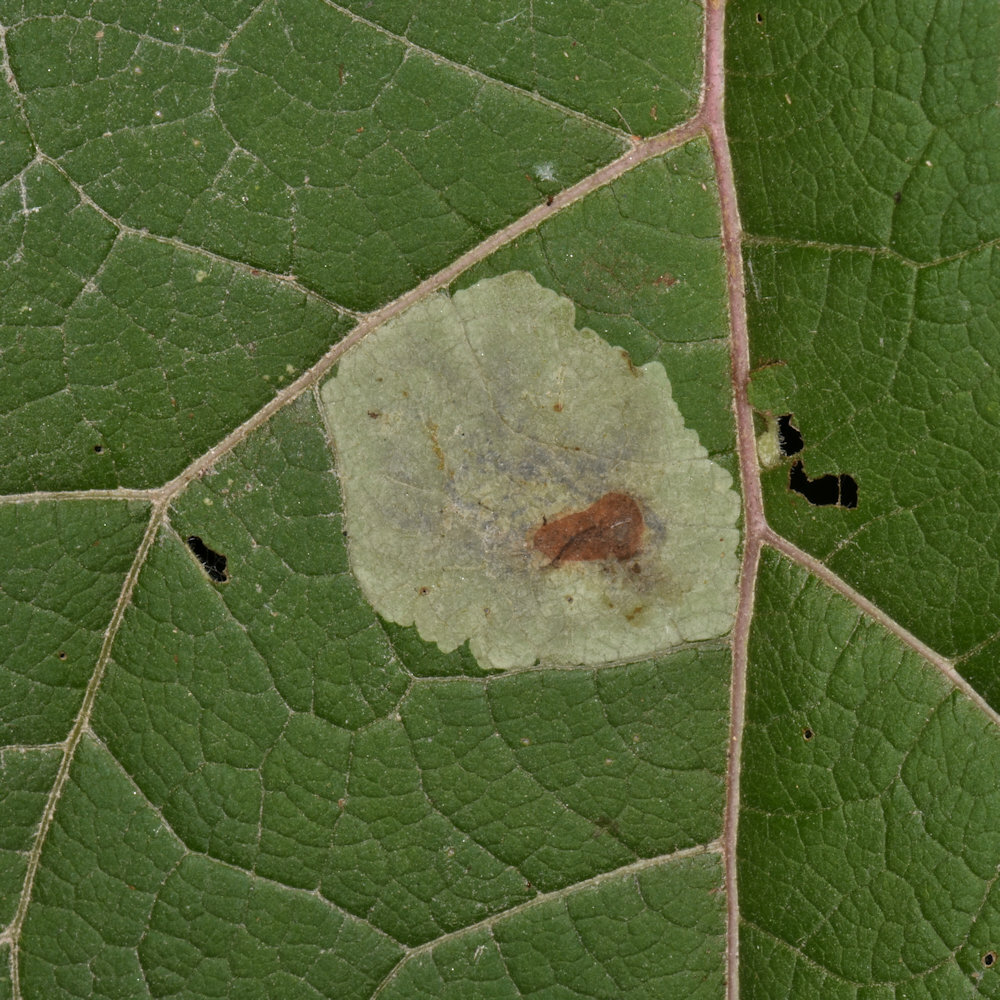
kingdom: Animalia
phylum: Arthropoda
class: Insecta
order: Diptera
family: Agromyzidae
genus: Calycomyza
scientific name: Calycomyza flavinotum
